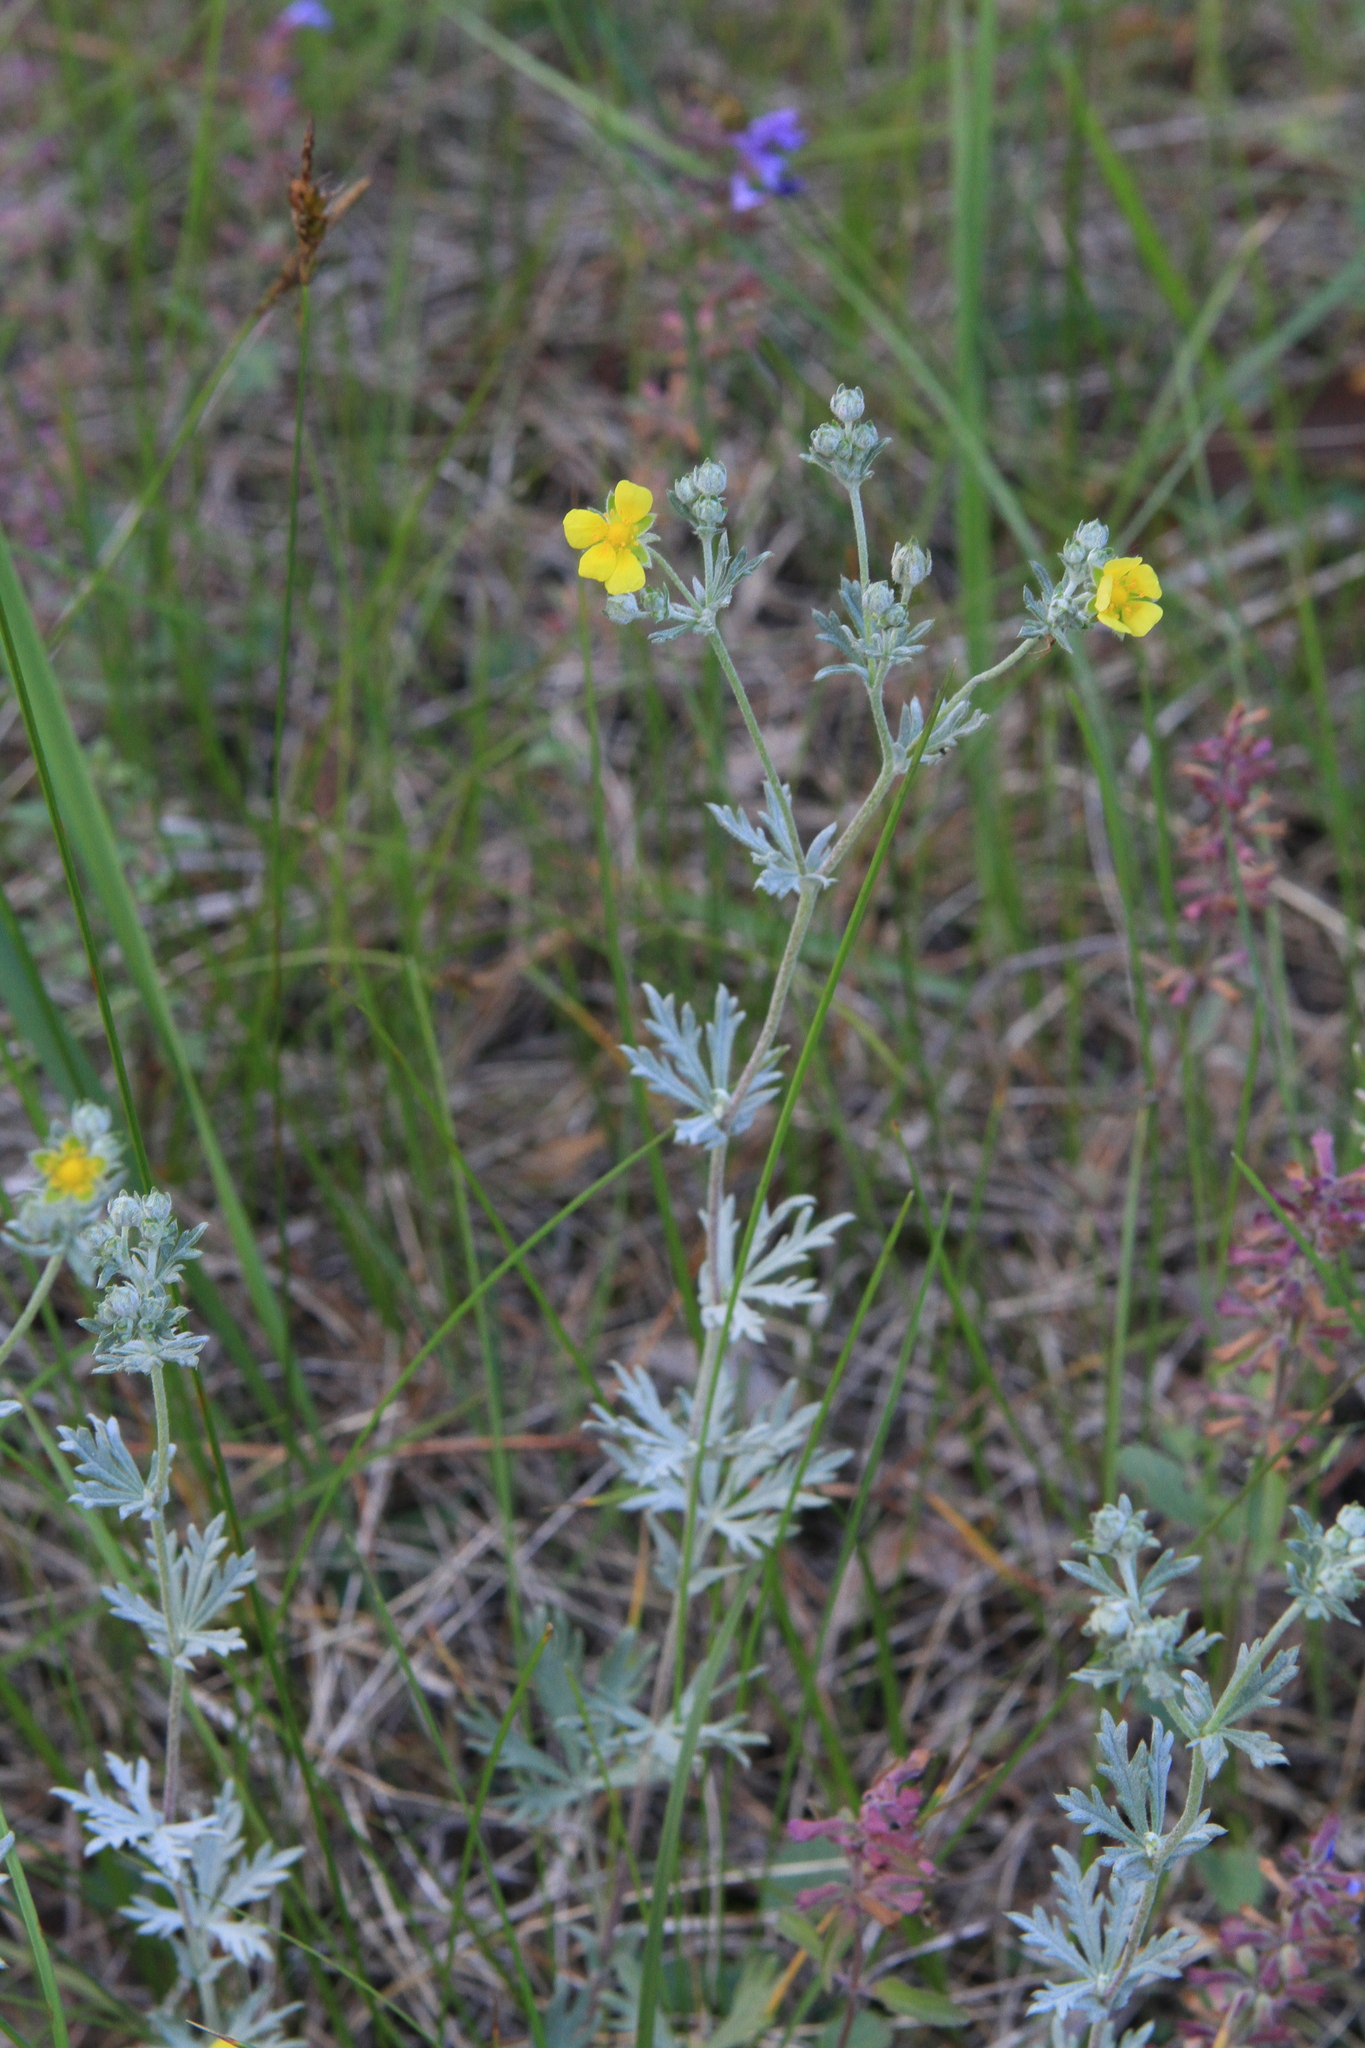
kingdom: Plantae
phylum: Tracheophyta
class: Magnoliopsida
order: Rosales
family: Rosaceae
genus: Potentilla
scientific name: Potentilla argentea
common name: Hoary cinquefoil
